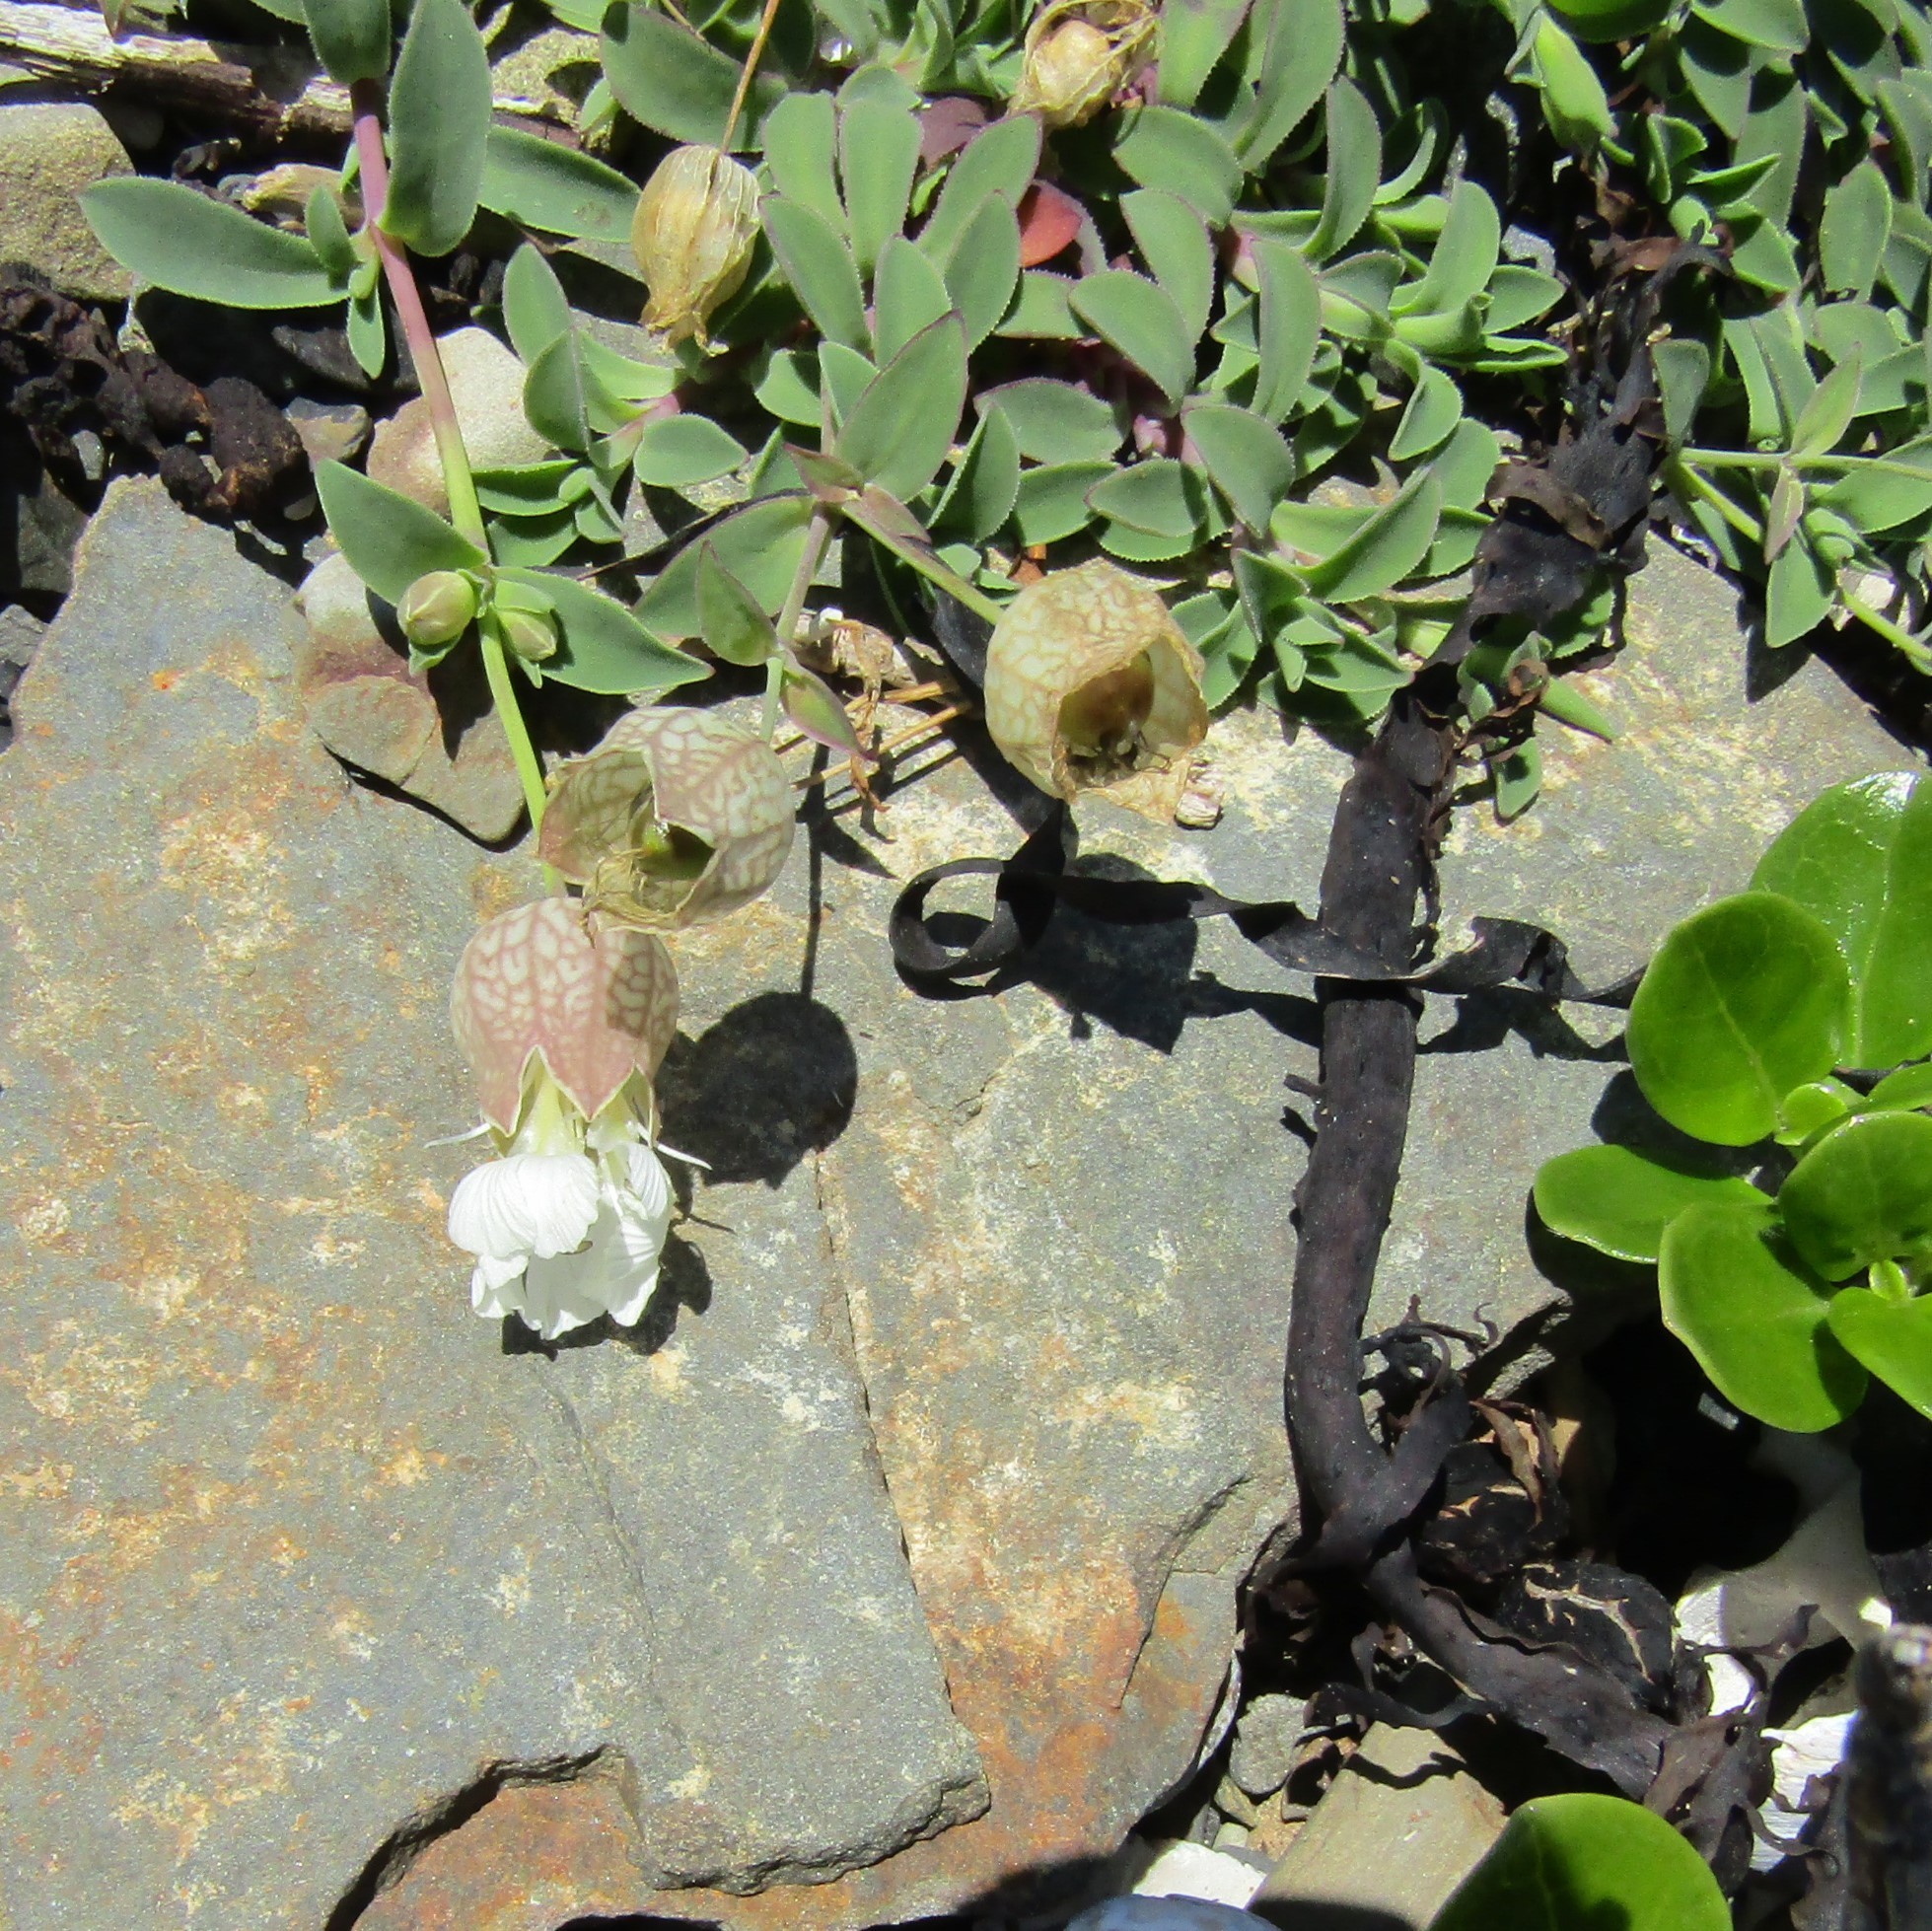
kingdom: Plantae
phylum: Tracheophyta
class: Magnoliopsida
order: Caryophyllales
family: Caryophyllaceae
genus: Silene
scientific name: Silene uniflora
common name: Sea campion
